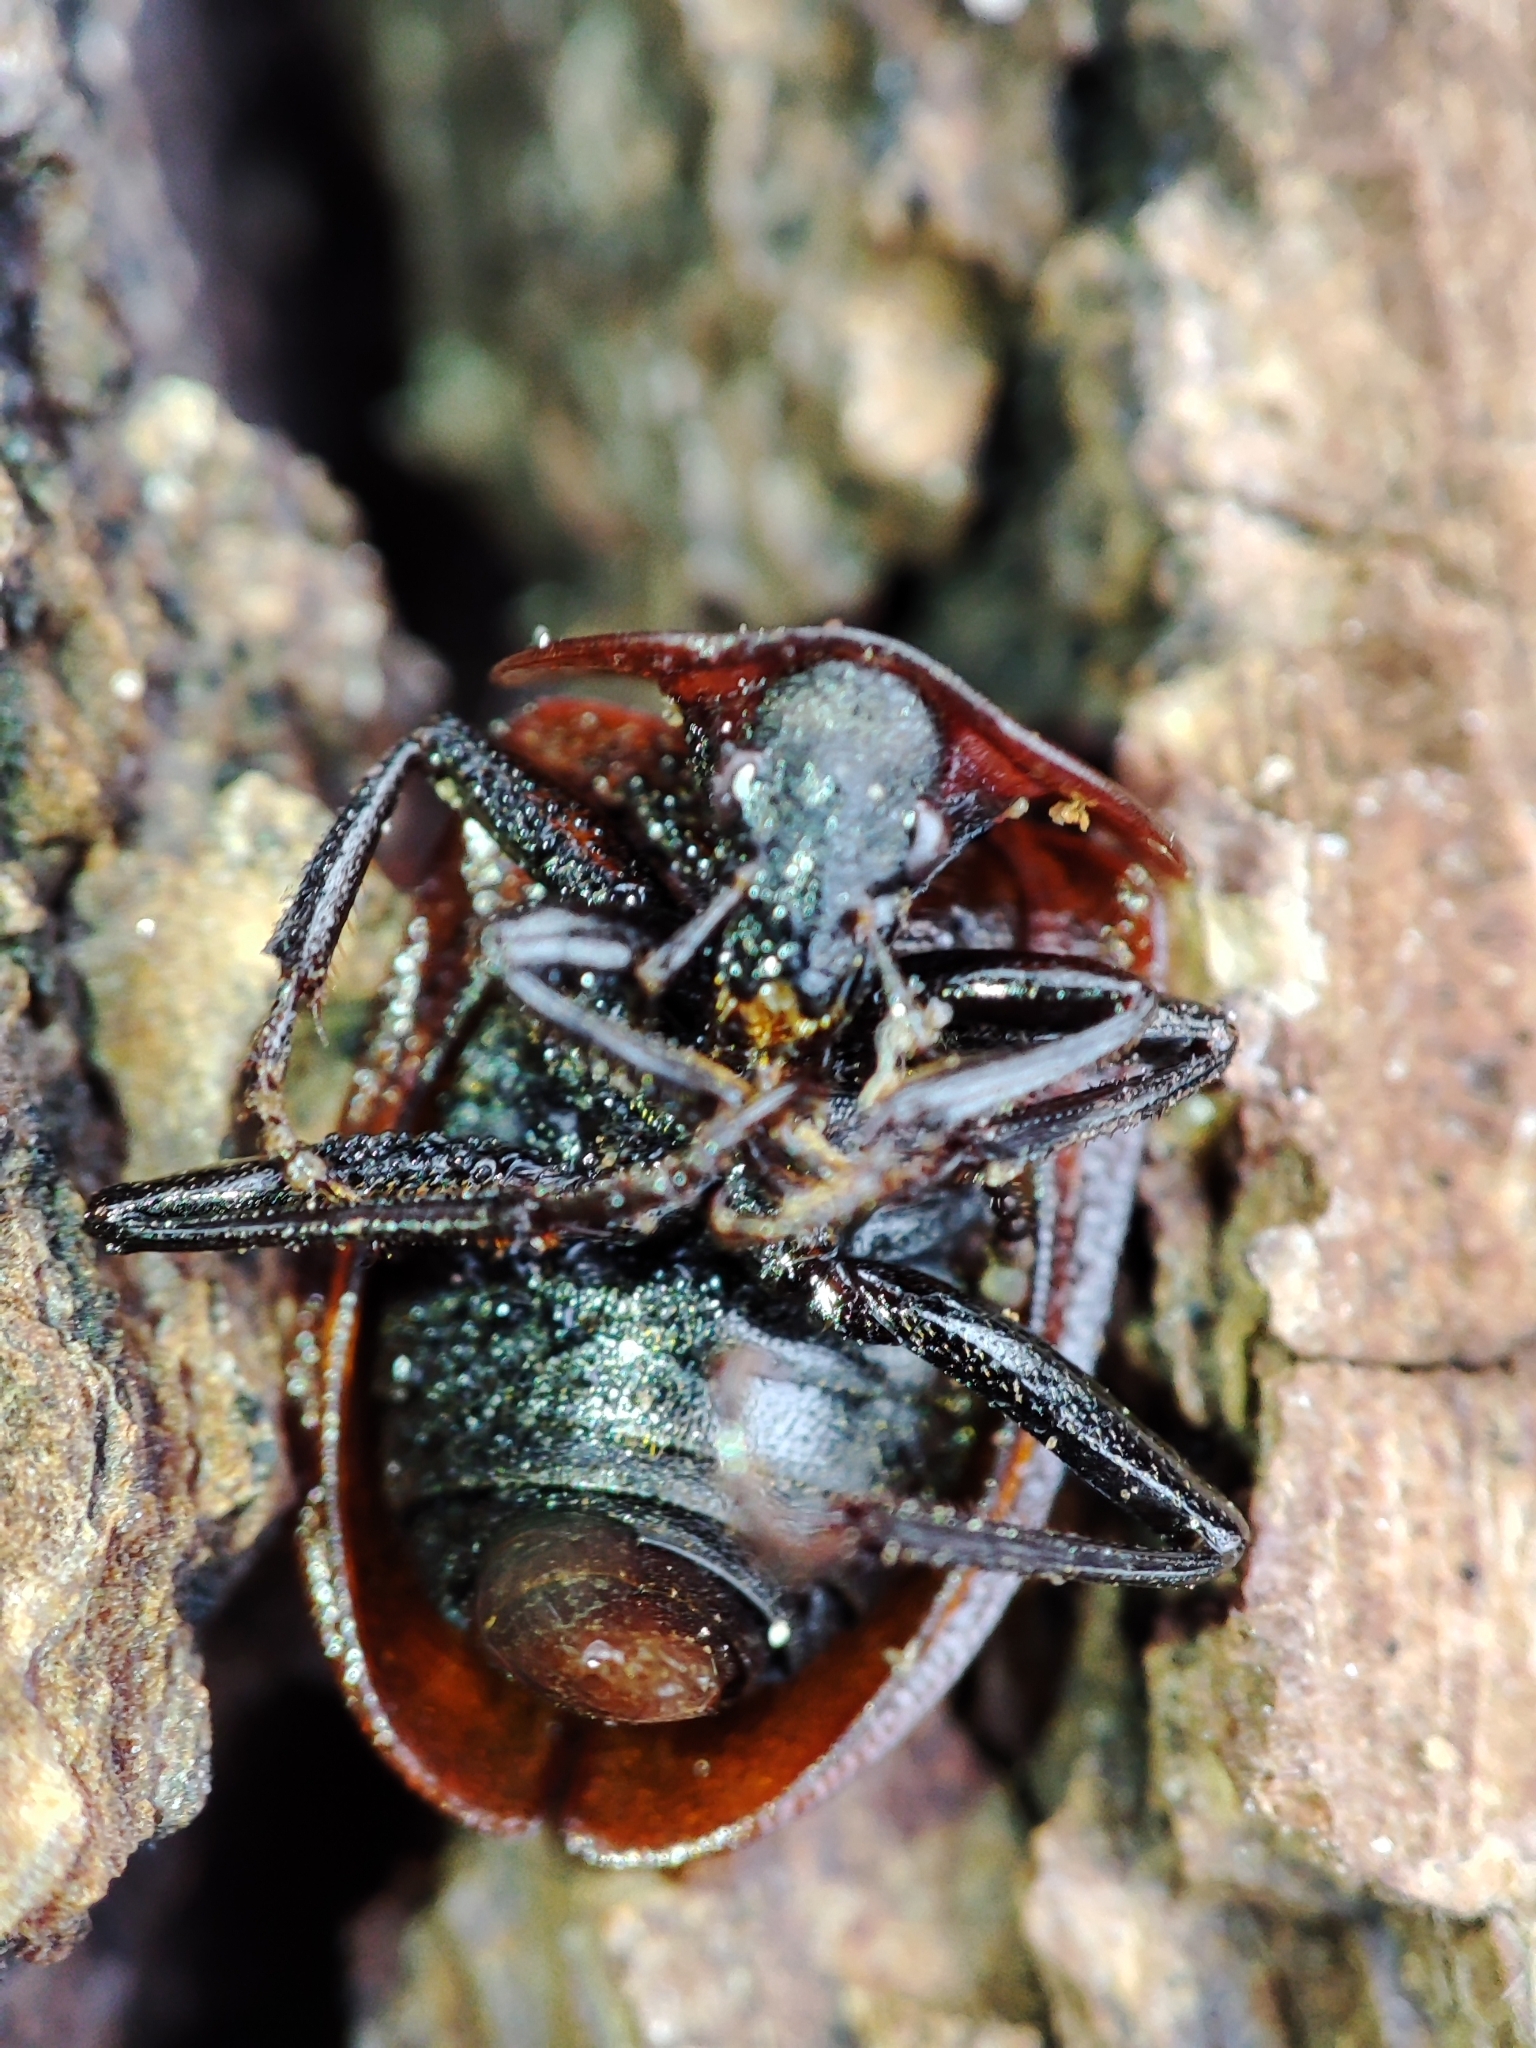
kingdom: Animalia
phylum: Arthropoda
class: Insecta
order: Coleoptera
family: Staphylinidae
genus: Silpha
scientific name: Silpha atrata
